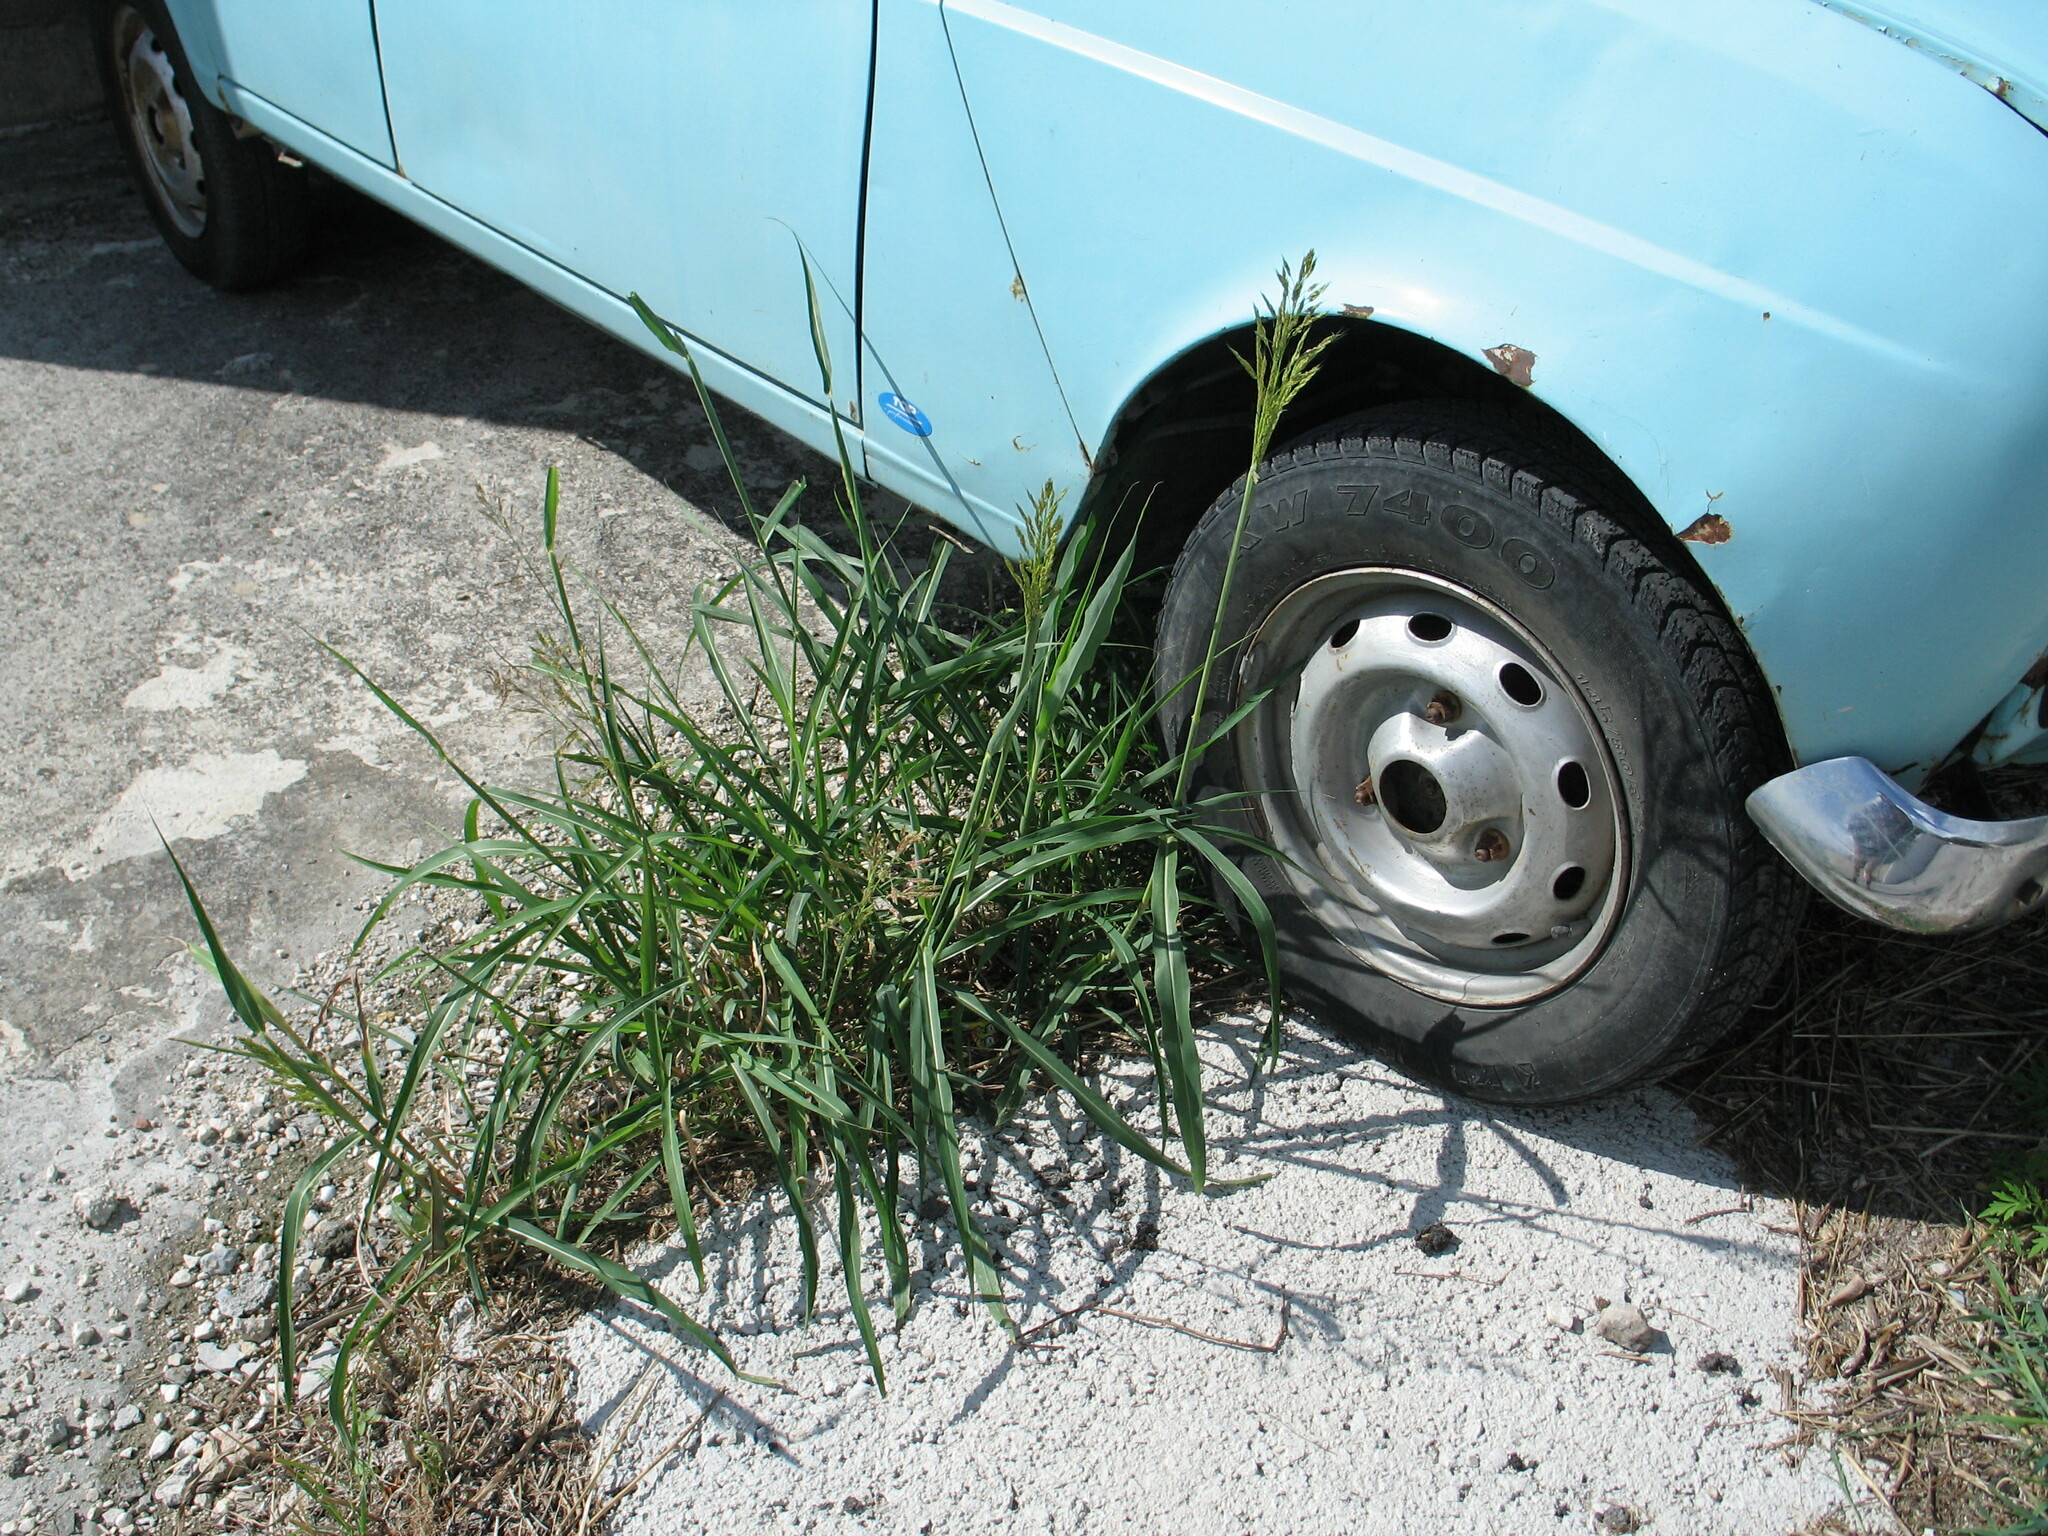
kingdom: Plantae
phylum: Tracheophyta
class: Liliopsida
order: Poales
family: Poaceae
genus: Sorghum
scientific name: Sorghum halepense
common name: Johnson-grass
